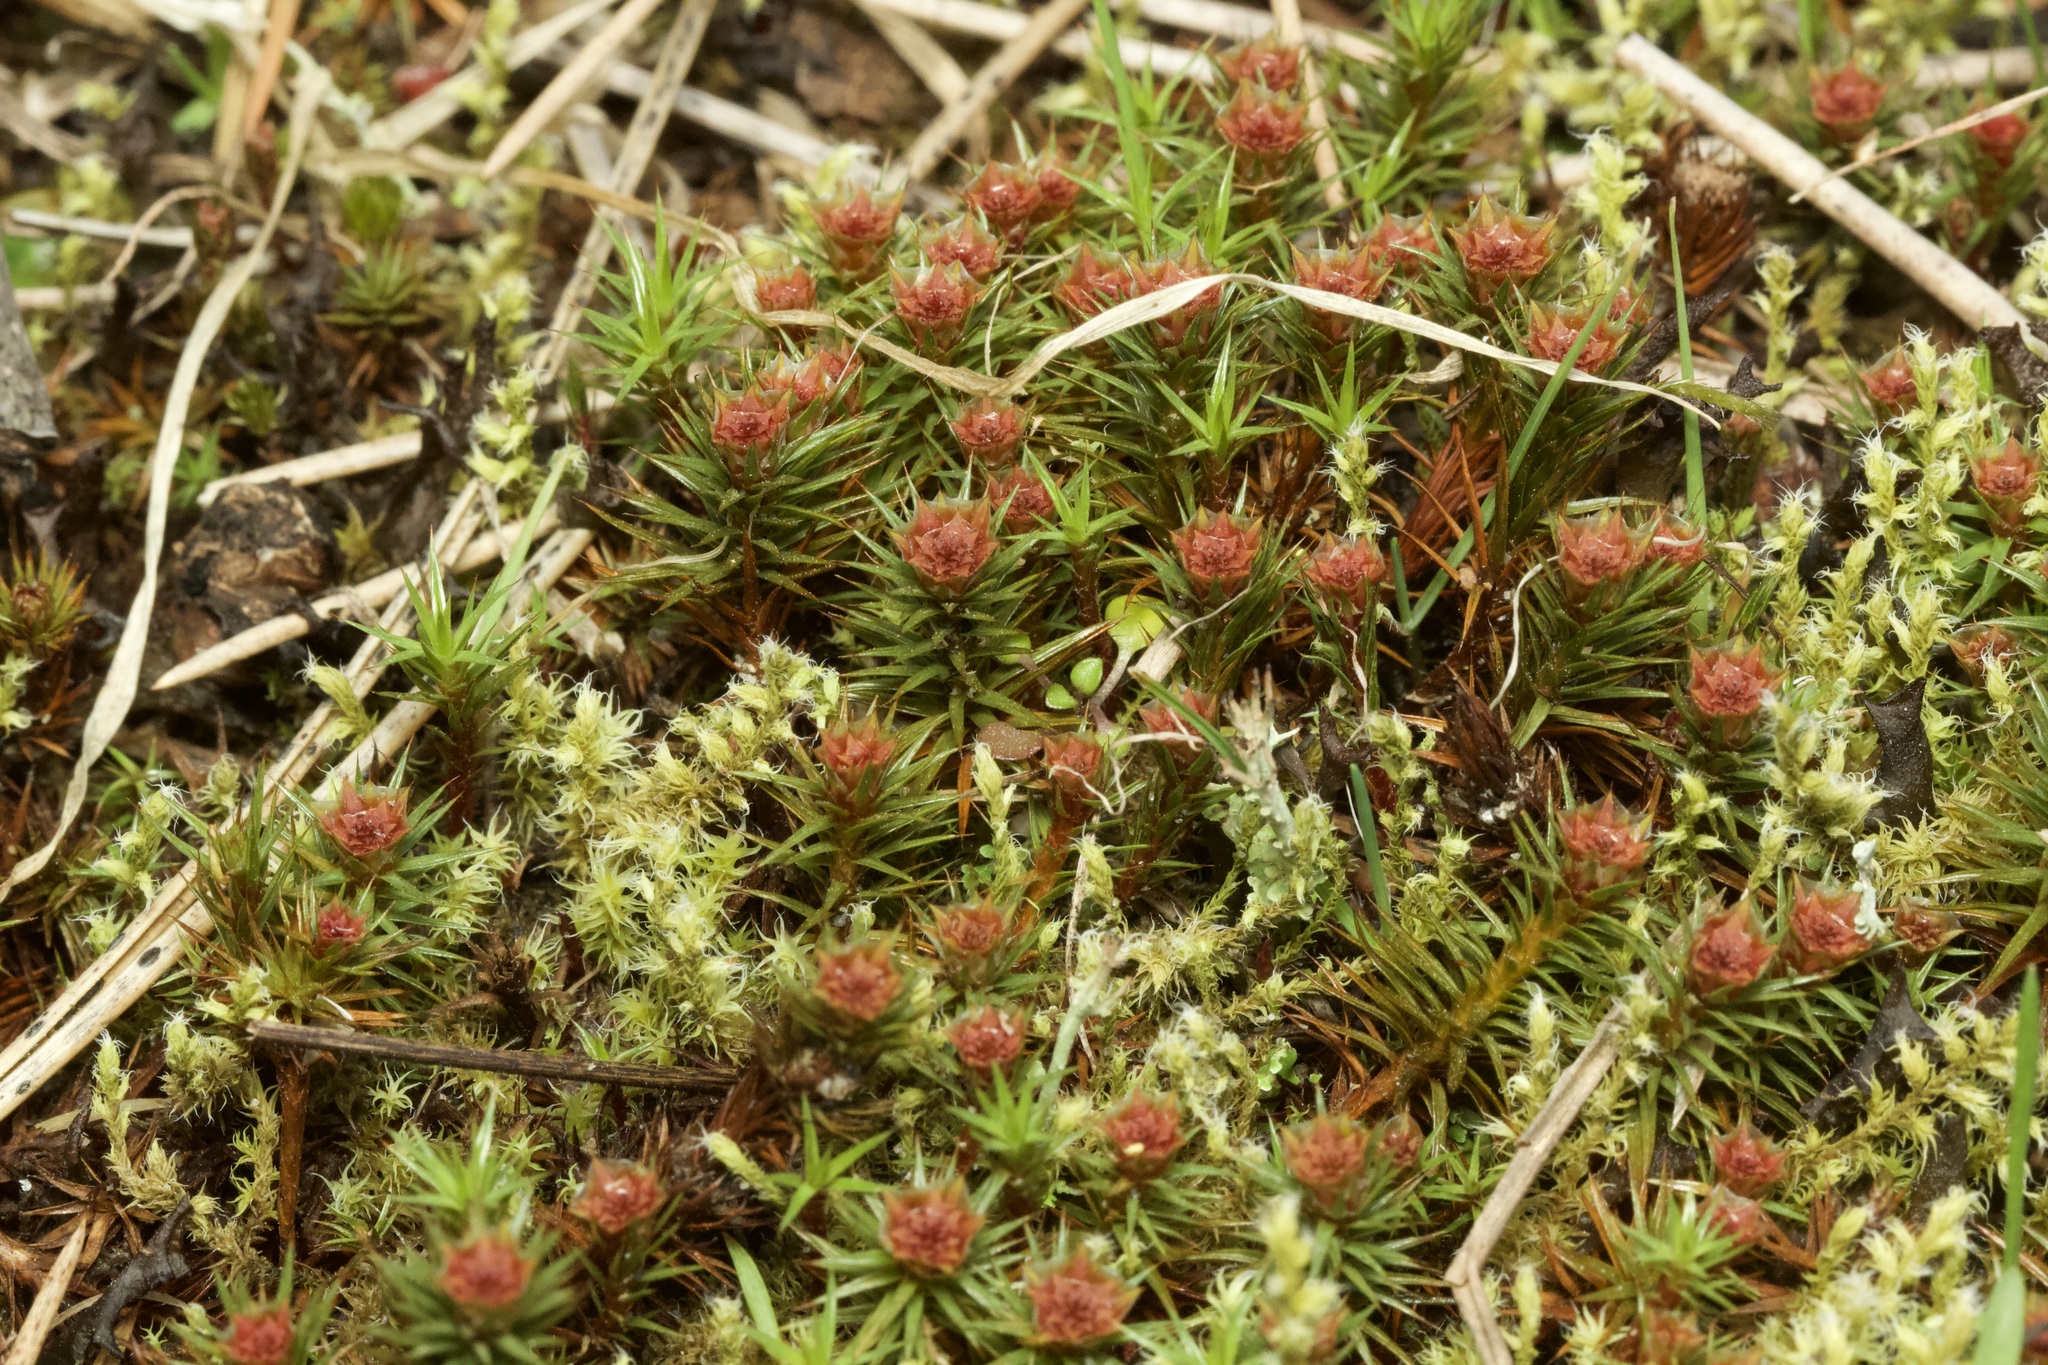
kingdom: Plantae
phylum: Bryophyta
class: Polytrichopsida
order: Polytrichales
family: Polytrichaceae
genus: Polytrichum
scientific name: Polytrichum juniperinum
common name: Juniper haircap moss
